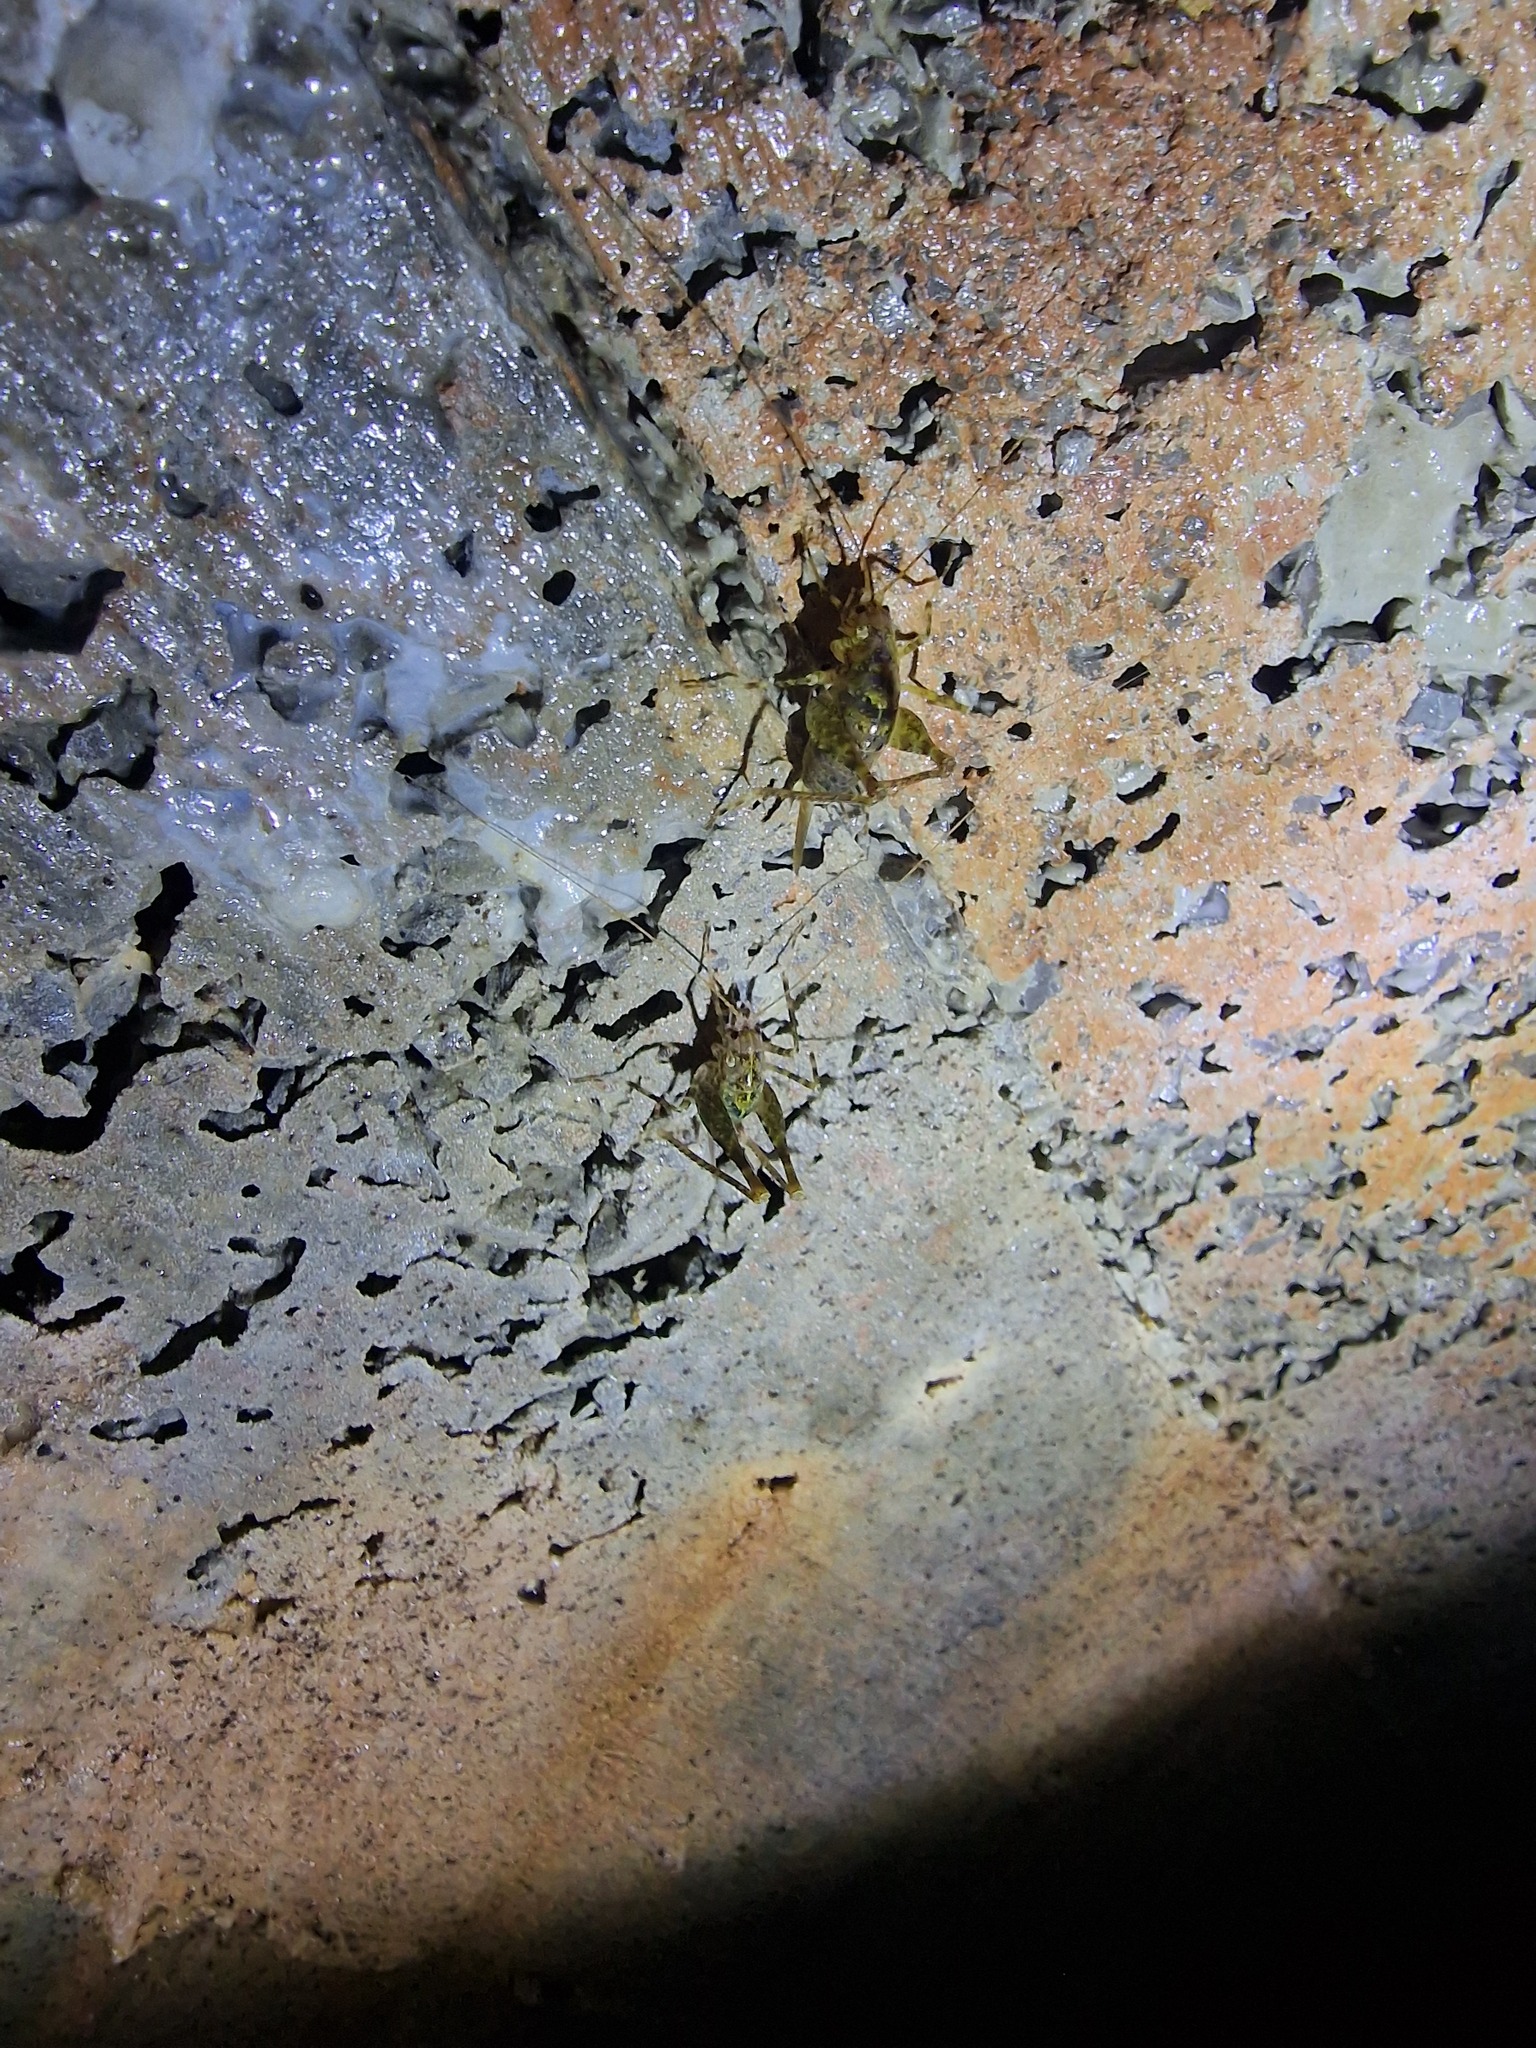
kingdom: Animalia
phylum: Arthropoda
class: Insecta
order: Orthoptera
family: Rhaphidophoridae
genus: Troglophilus
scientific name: Troglophilus neglectus
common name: Neglected cave-cricket
